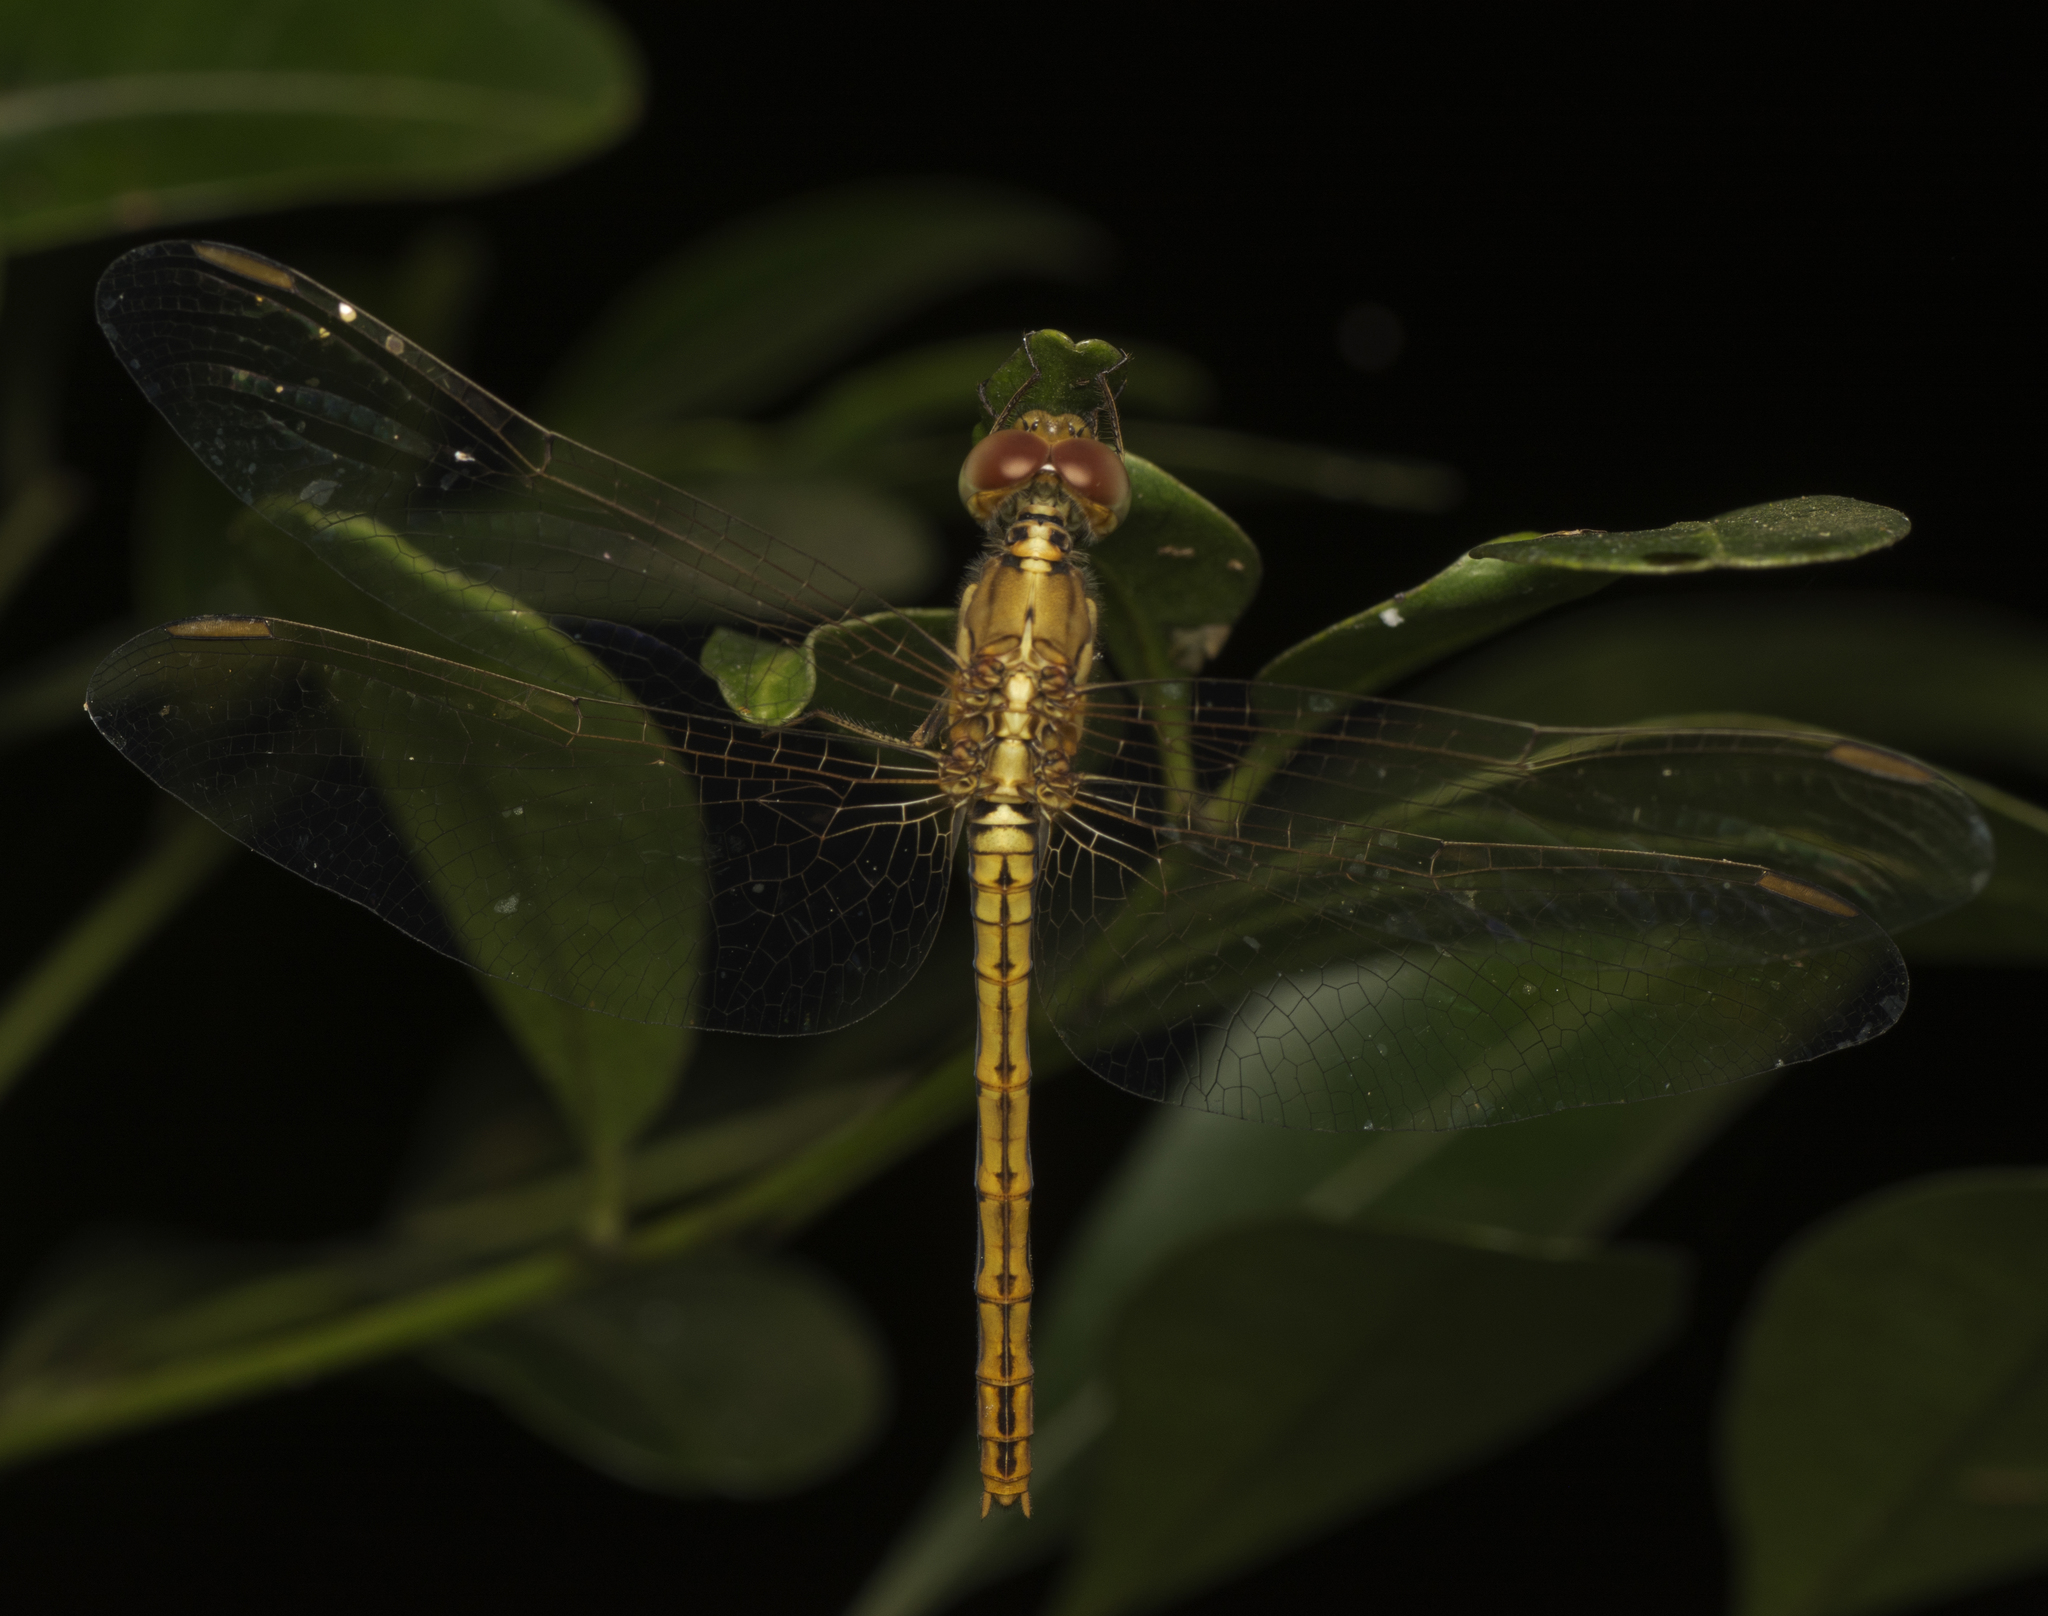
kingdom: Animalia
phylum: Arthropoda
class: Insecta
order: Odonata
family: Libellulidae
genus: Diplacodes
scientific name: Diplacodes haematodes
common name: Scarlet percher
